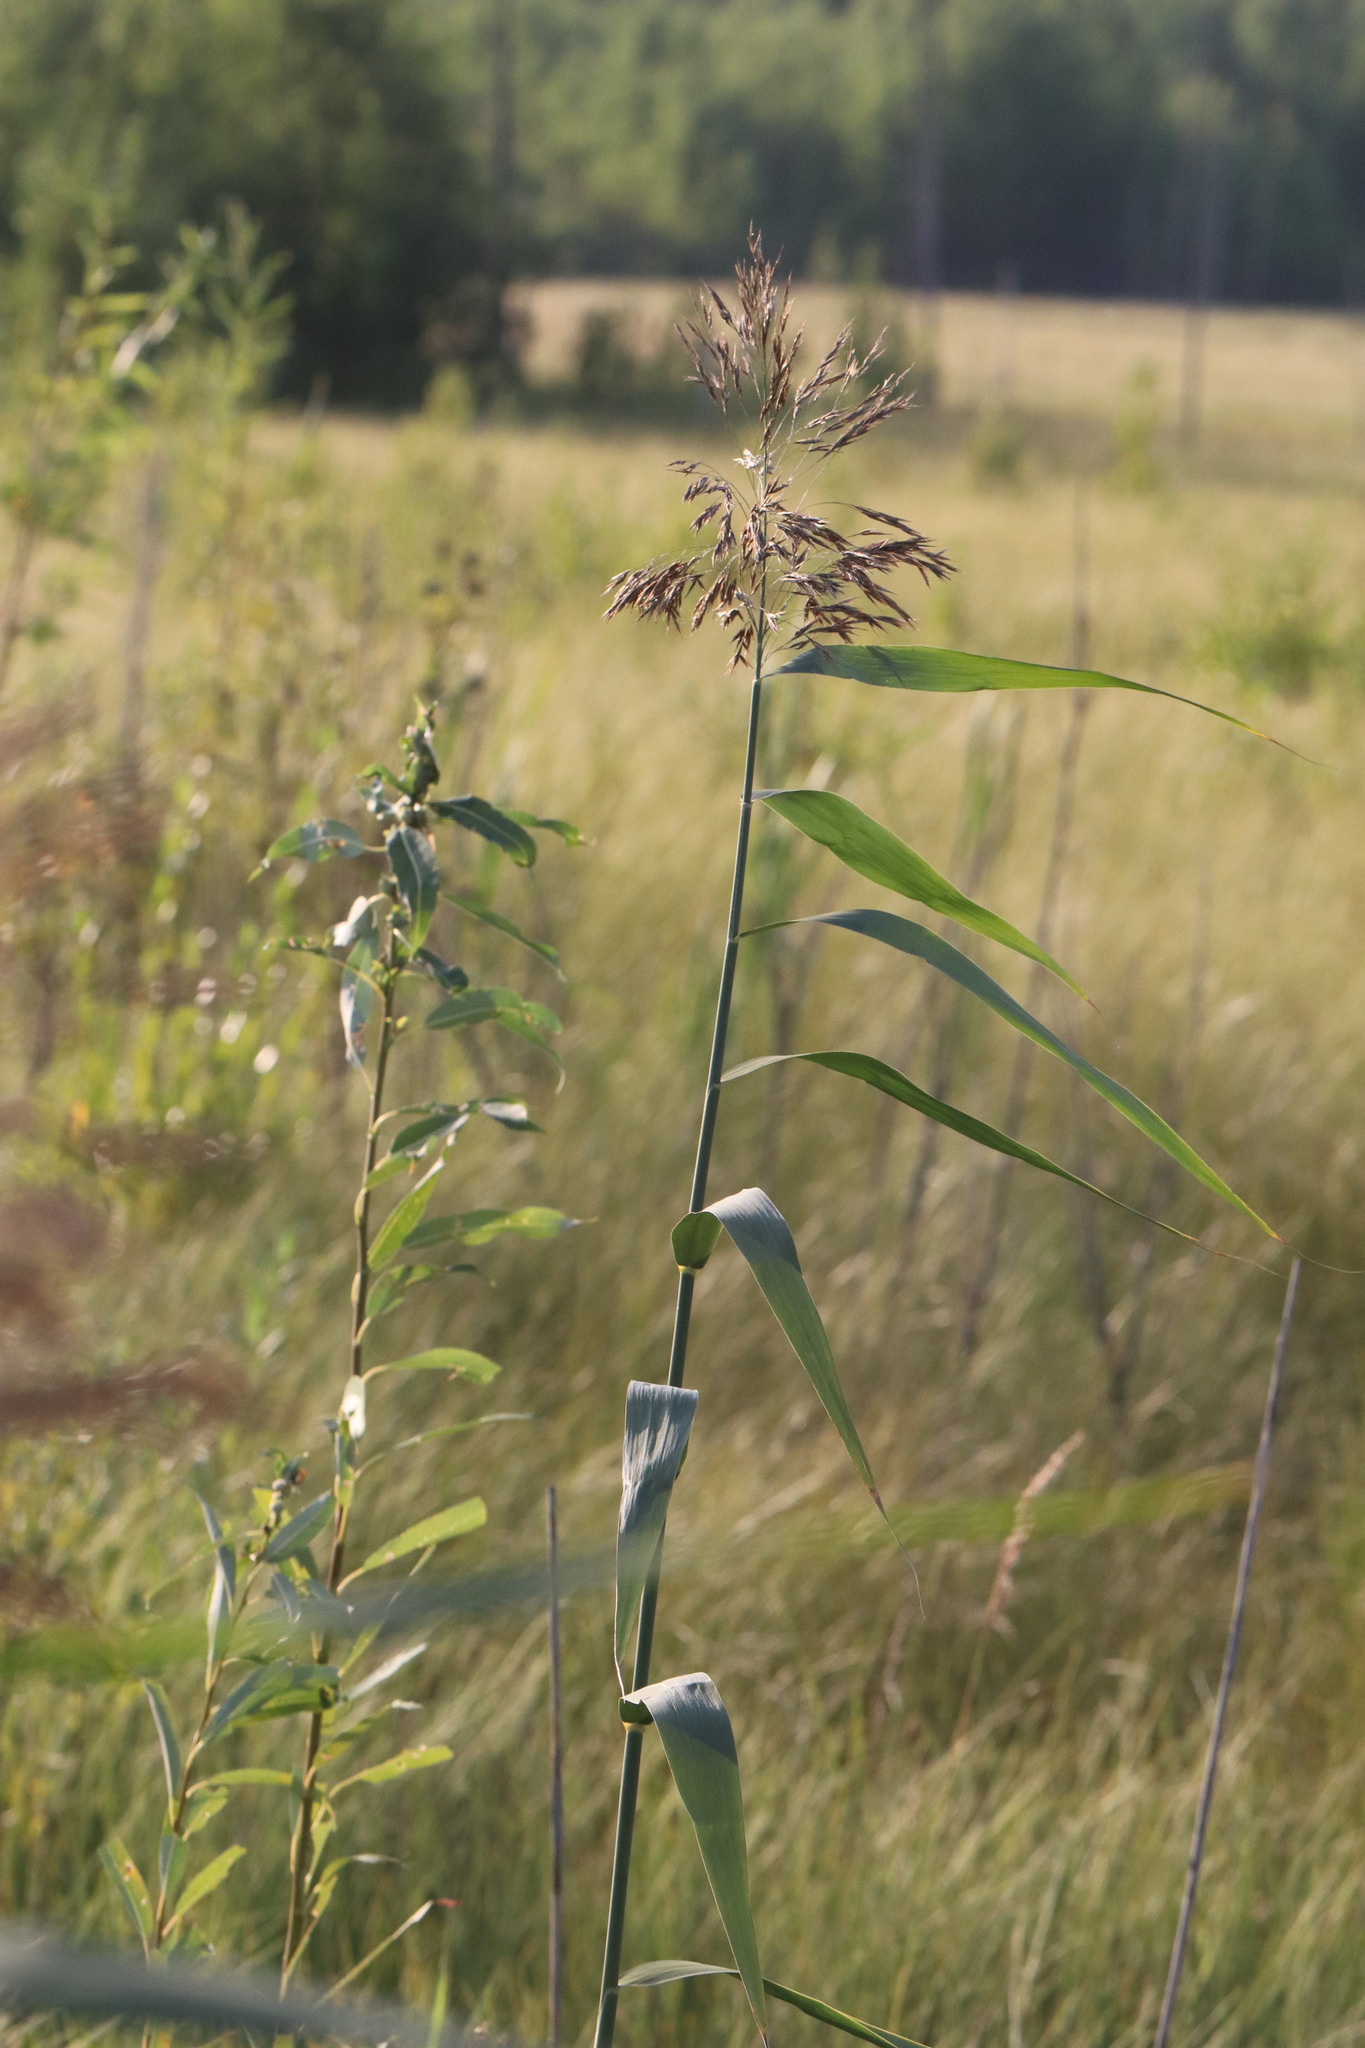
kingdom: Plantae
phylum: Tracheophyta
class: Liliopsida
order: Poales
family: Poaceae
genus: Phragmites
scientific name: Phragmites australis
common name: Common reed
